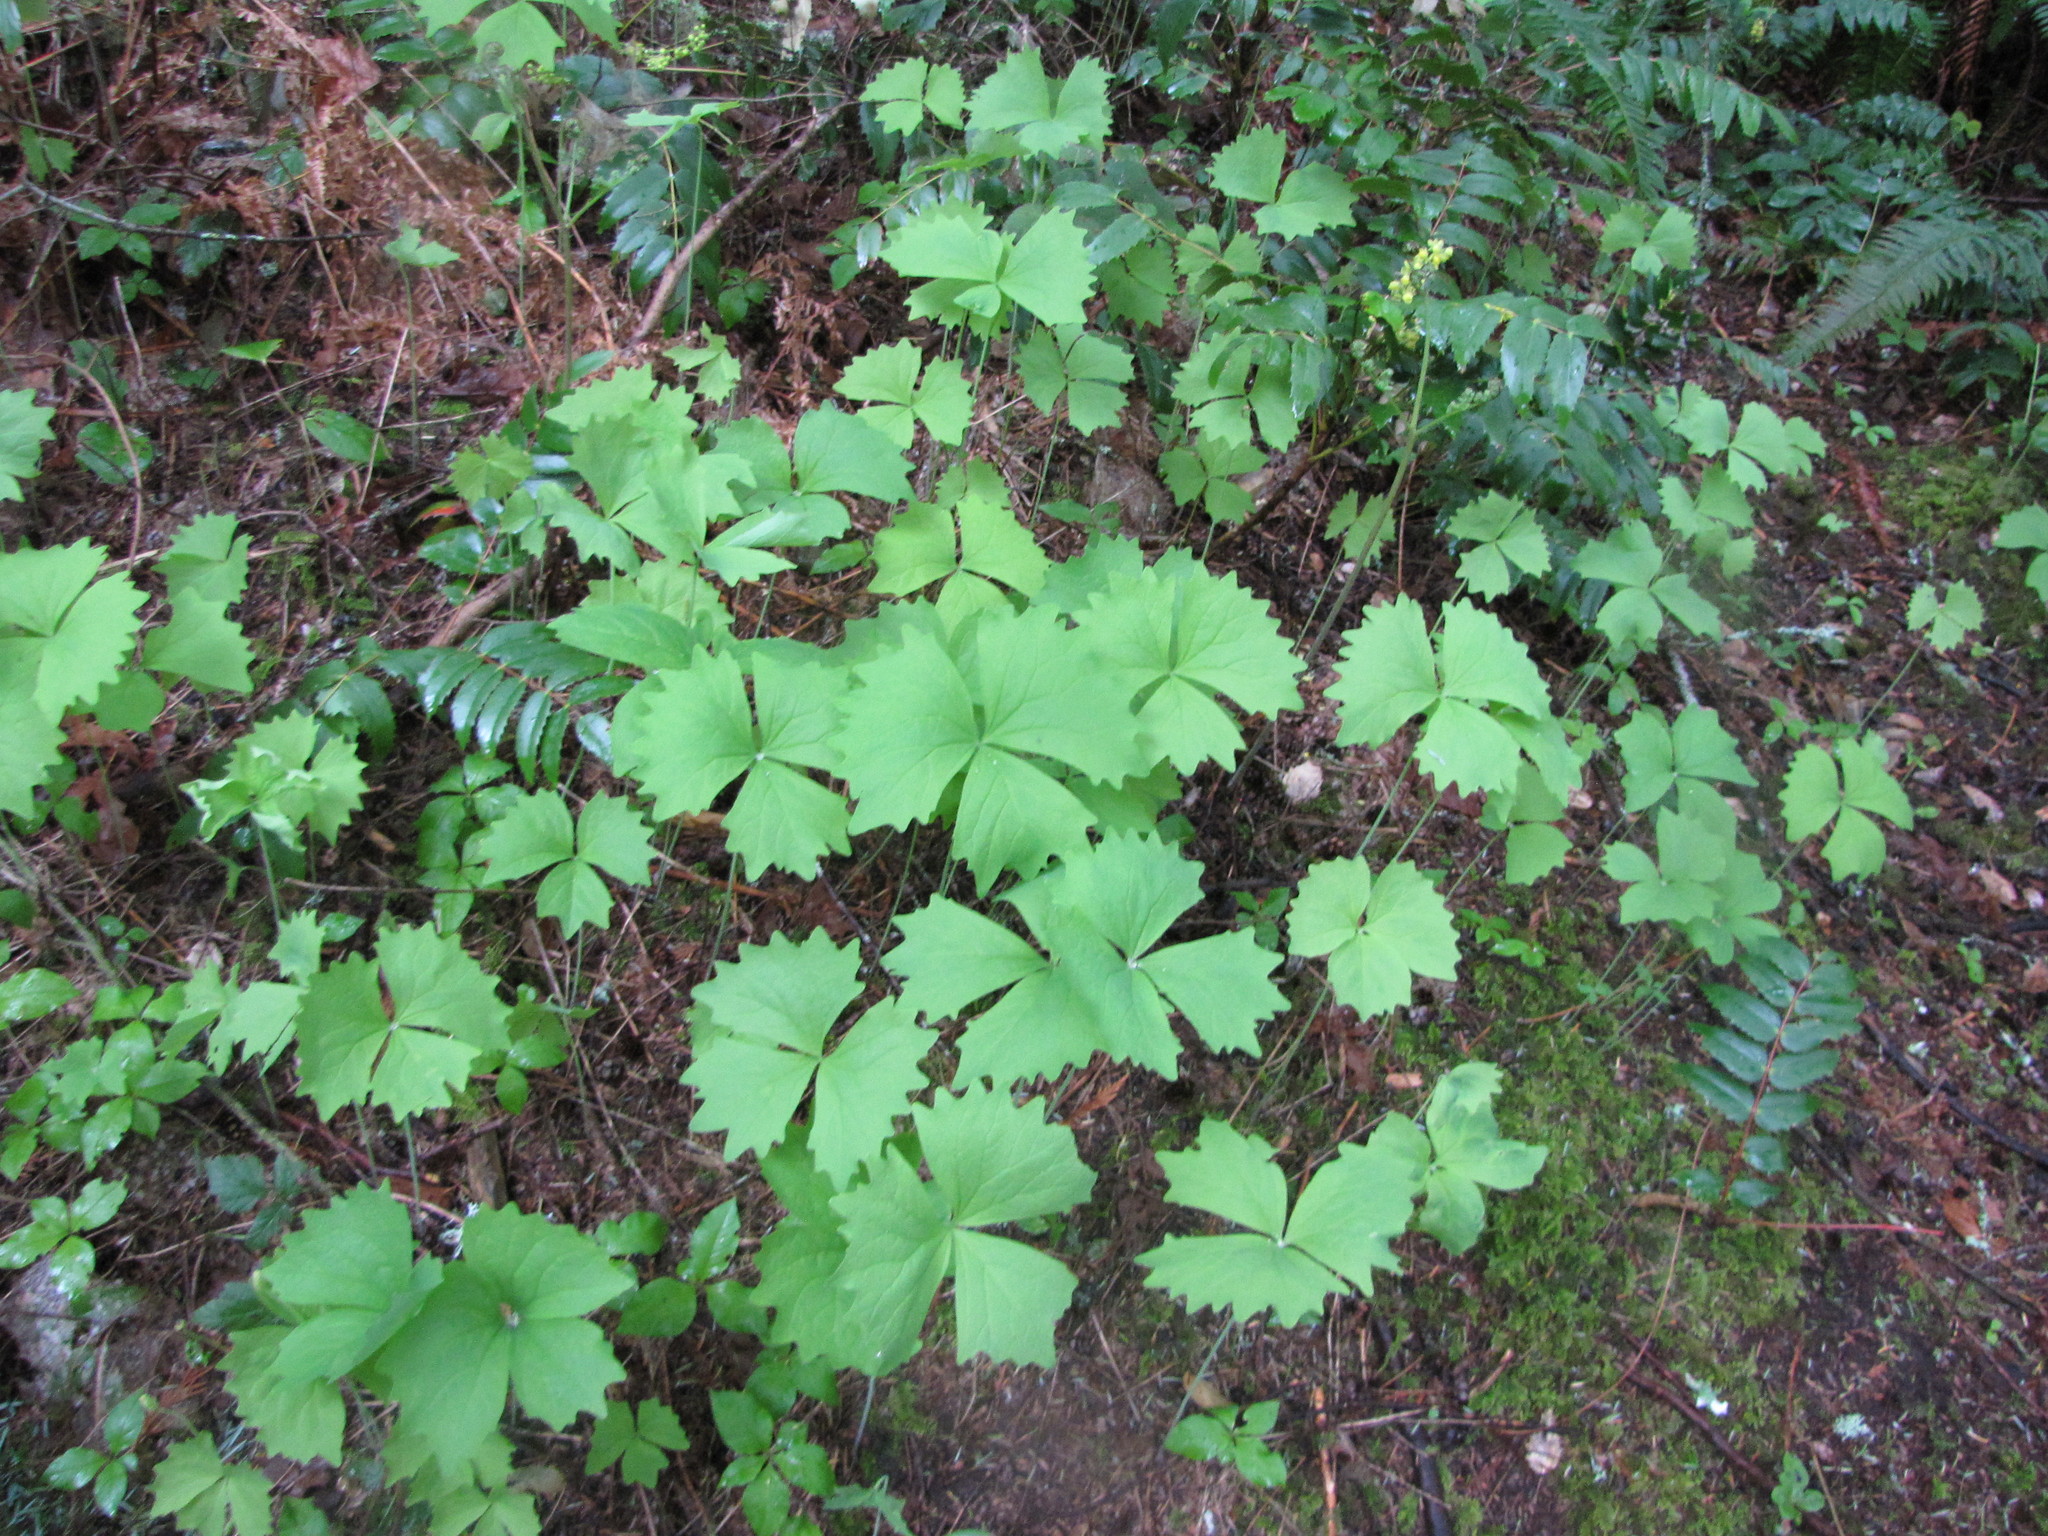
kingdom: Plantae
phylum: Tracheophyta
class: Magnoliopsida
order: Ranunculales
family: Berberidaceae
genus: Achlys
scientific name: Achlys triphylla
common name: Vanilla-leaf
